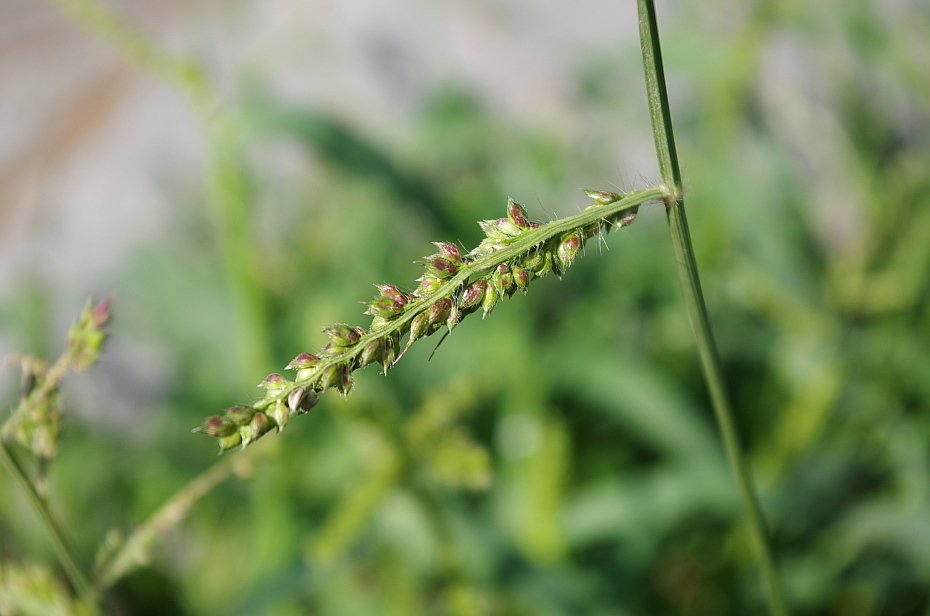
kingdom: Plantae
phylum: Tracheophyta
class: Liliopsida
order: Poales
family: Poaceae
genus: Echinochloa
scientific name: Echinochloa crus-galli
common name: Cockspur
